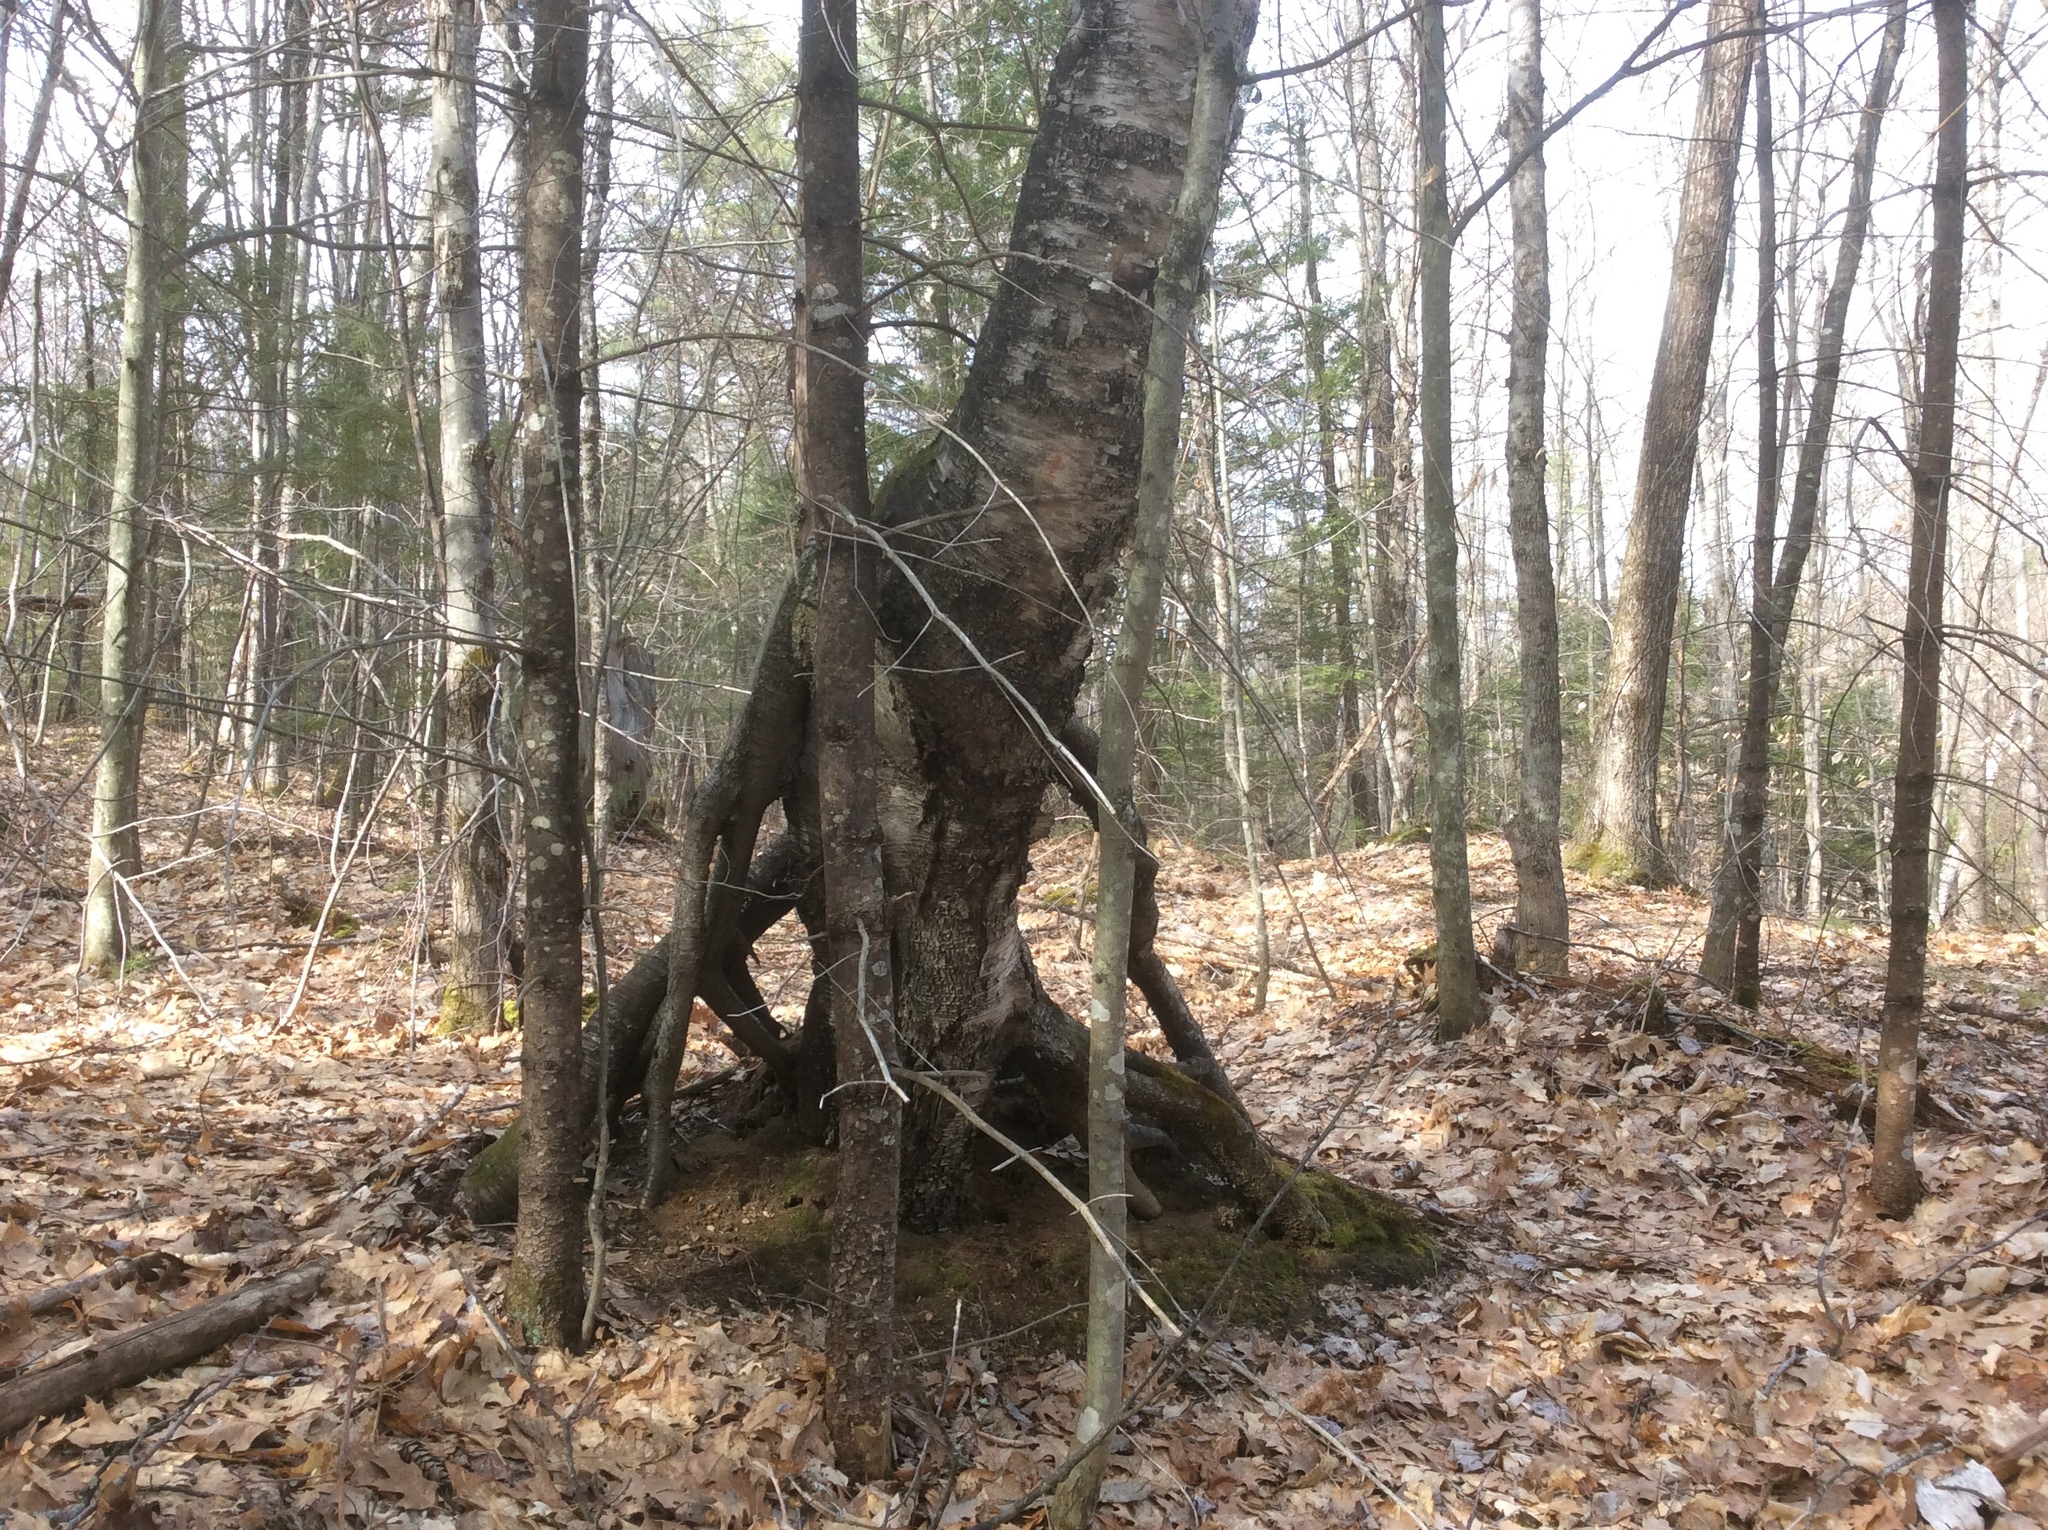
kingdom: Plantae
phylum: Tracheophyta
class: Magnoliopsida
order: Fagales
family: Betulaceae
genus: Betula
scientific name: Betula papyrifera
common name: Paper birch
